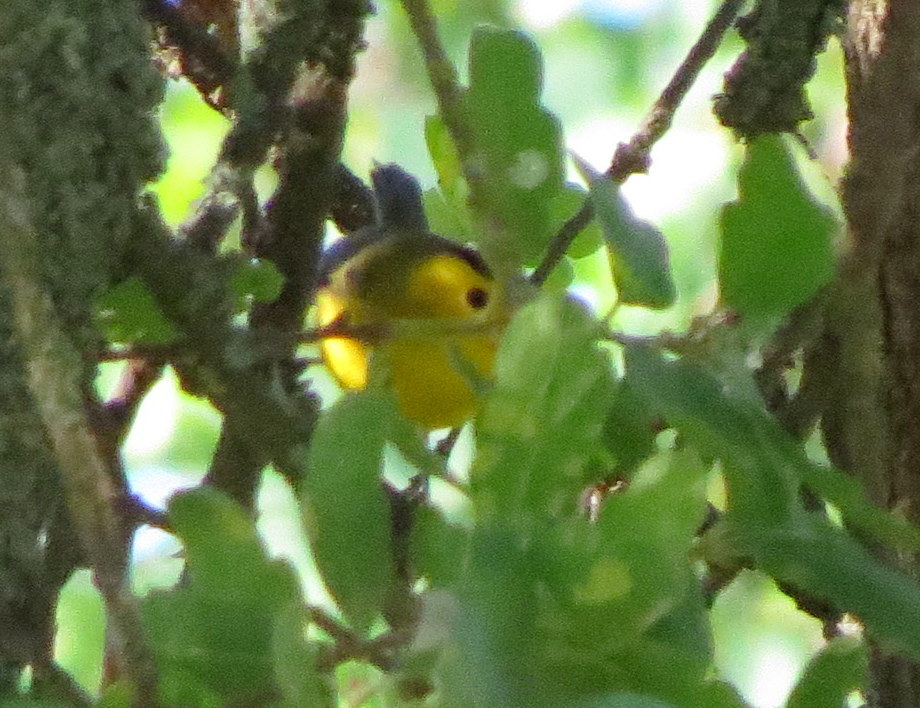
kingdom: Animalia
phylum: Chordata
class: Aves
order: Passeriformes
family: Parulidae
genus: Cardellina
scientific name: Cardellina pusilla
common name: Wilson's warbler
